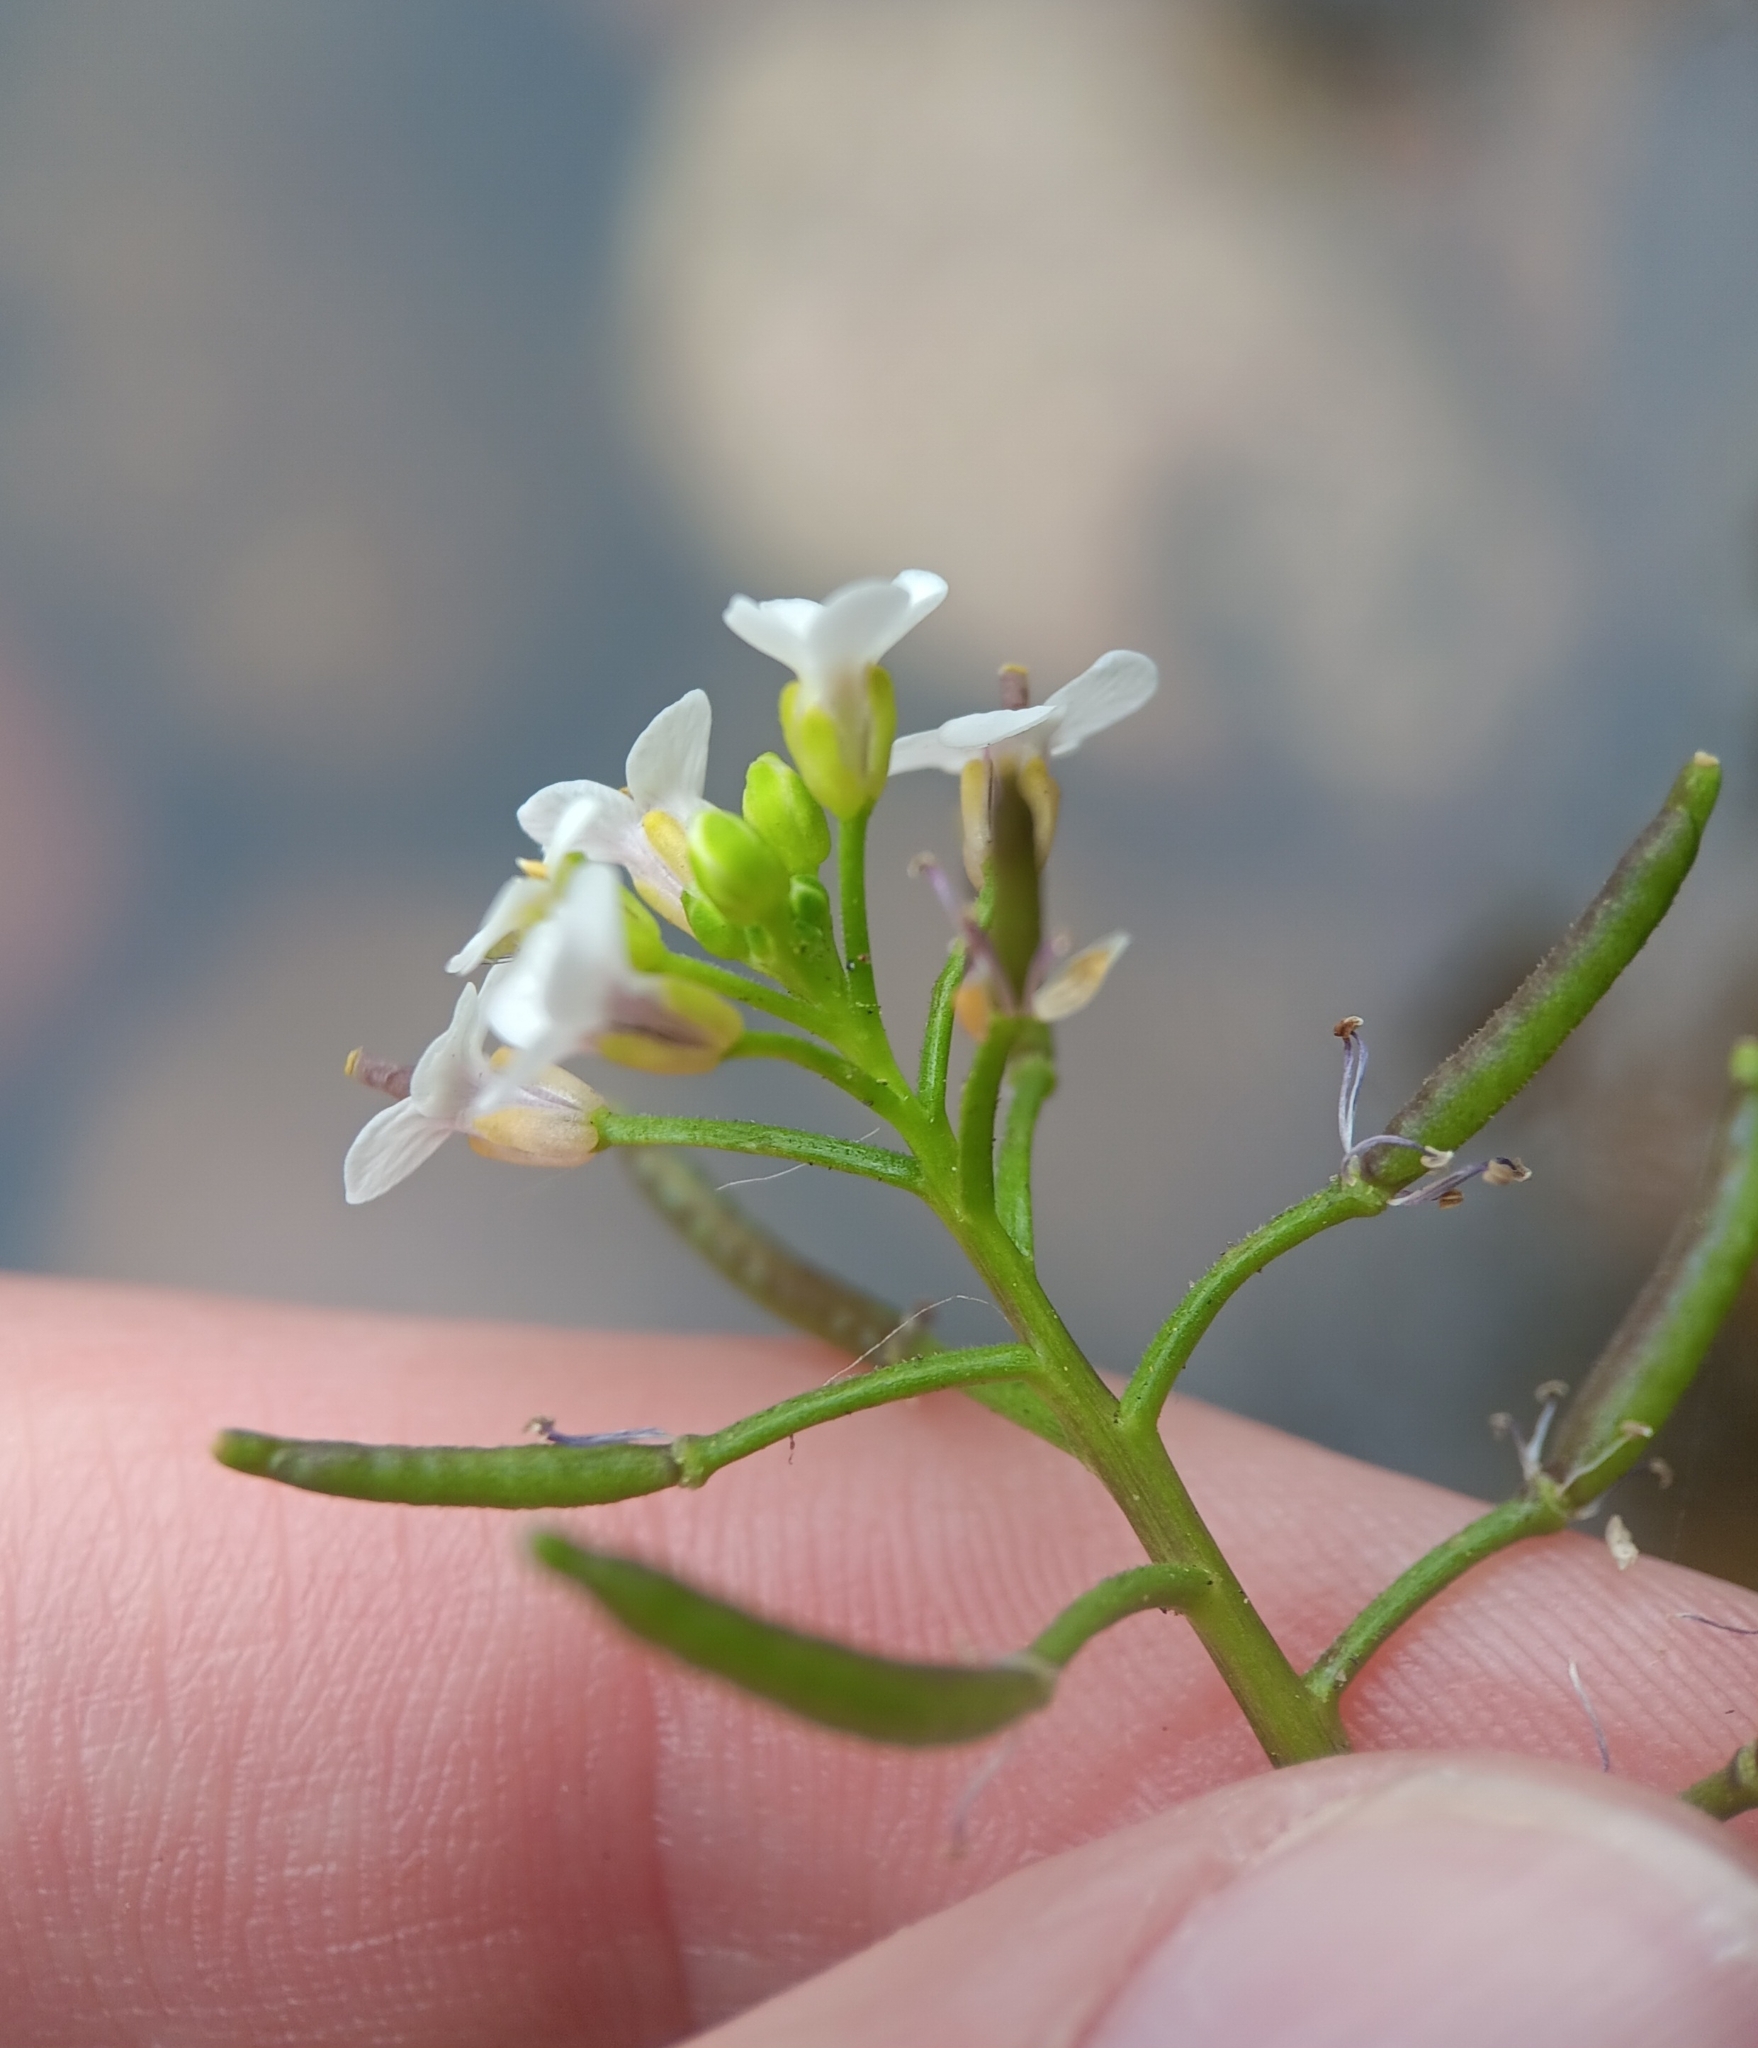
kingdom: Plantae
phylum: Tracheophyta
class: Magnoliopsida
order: Brassicales
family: Brassicaceae
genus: Nasturtium
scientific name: Nasturtium officinale
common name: Watercress
